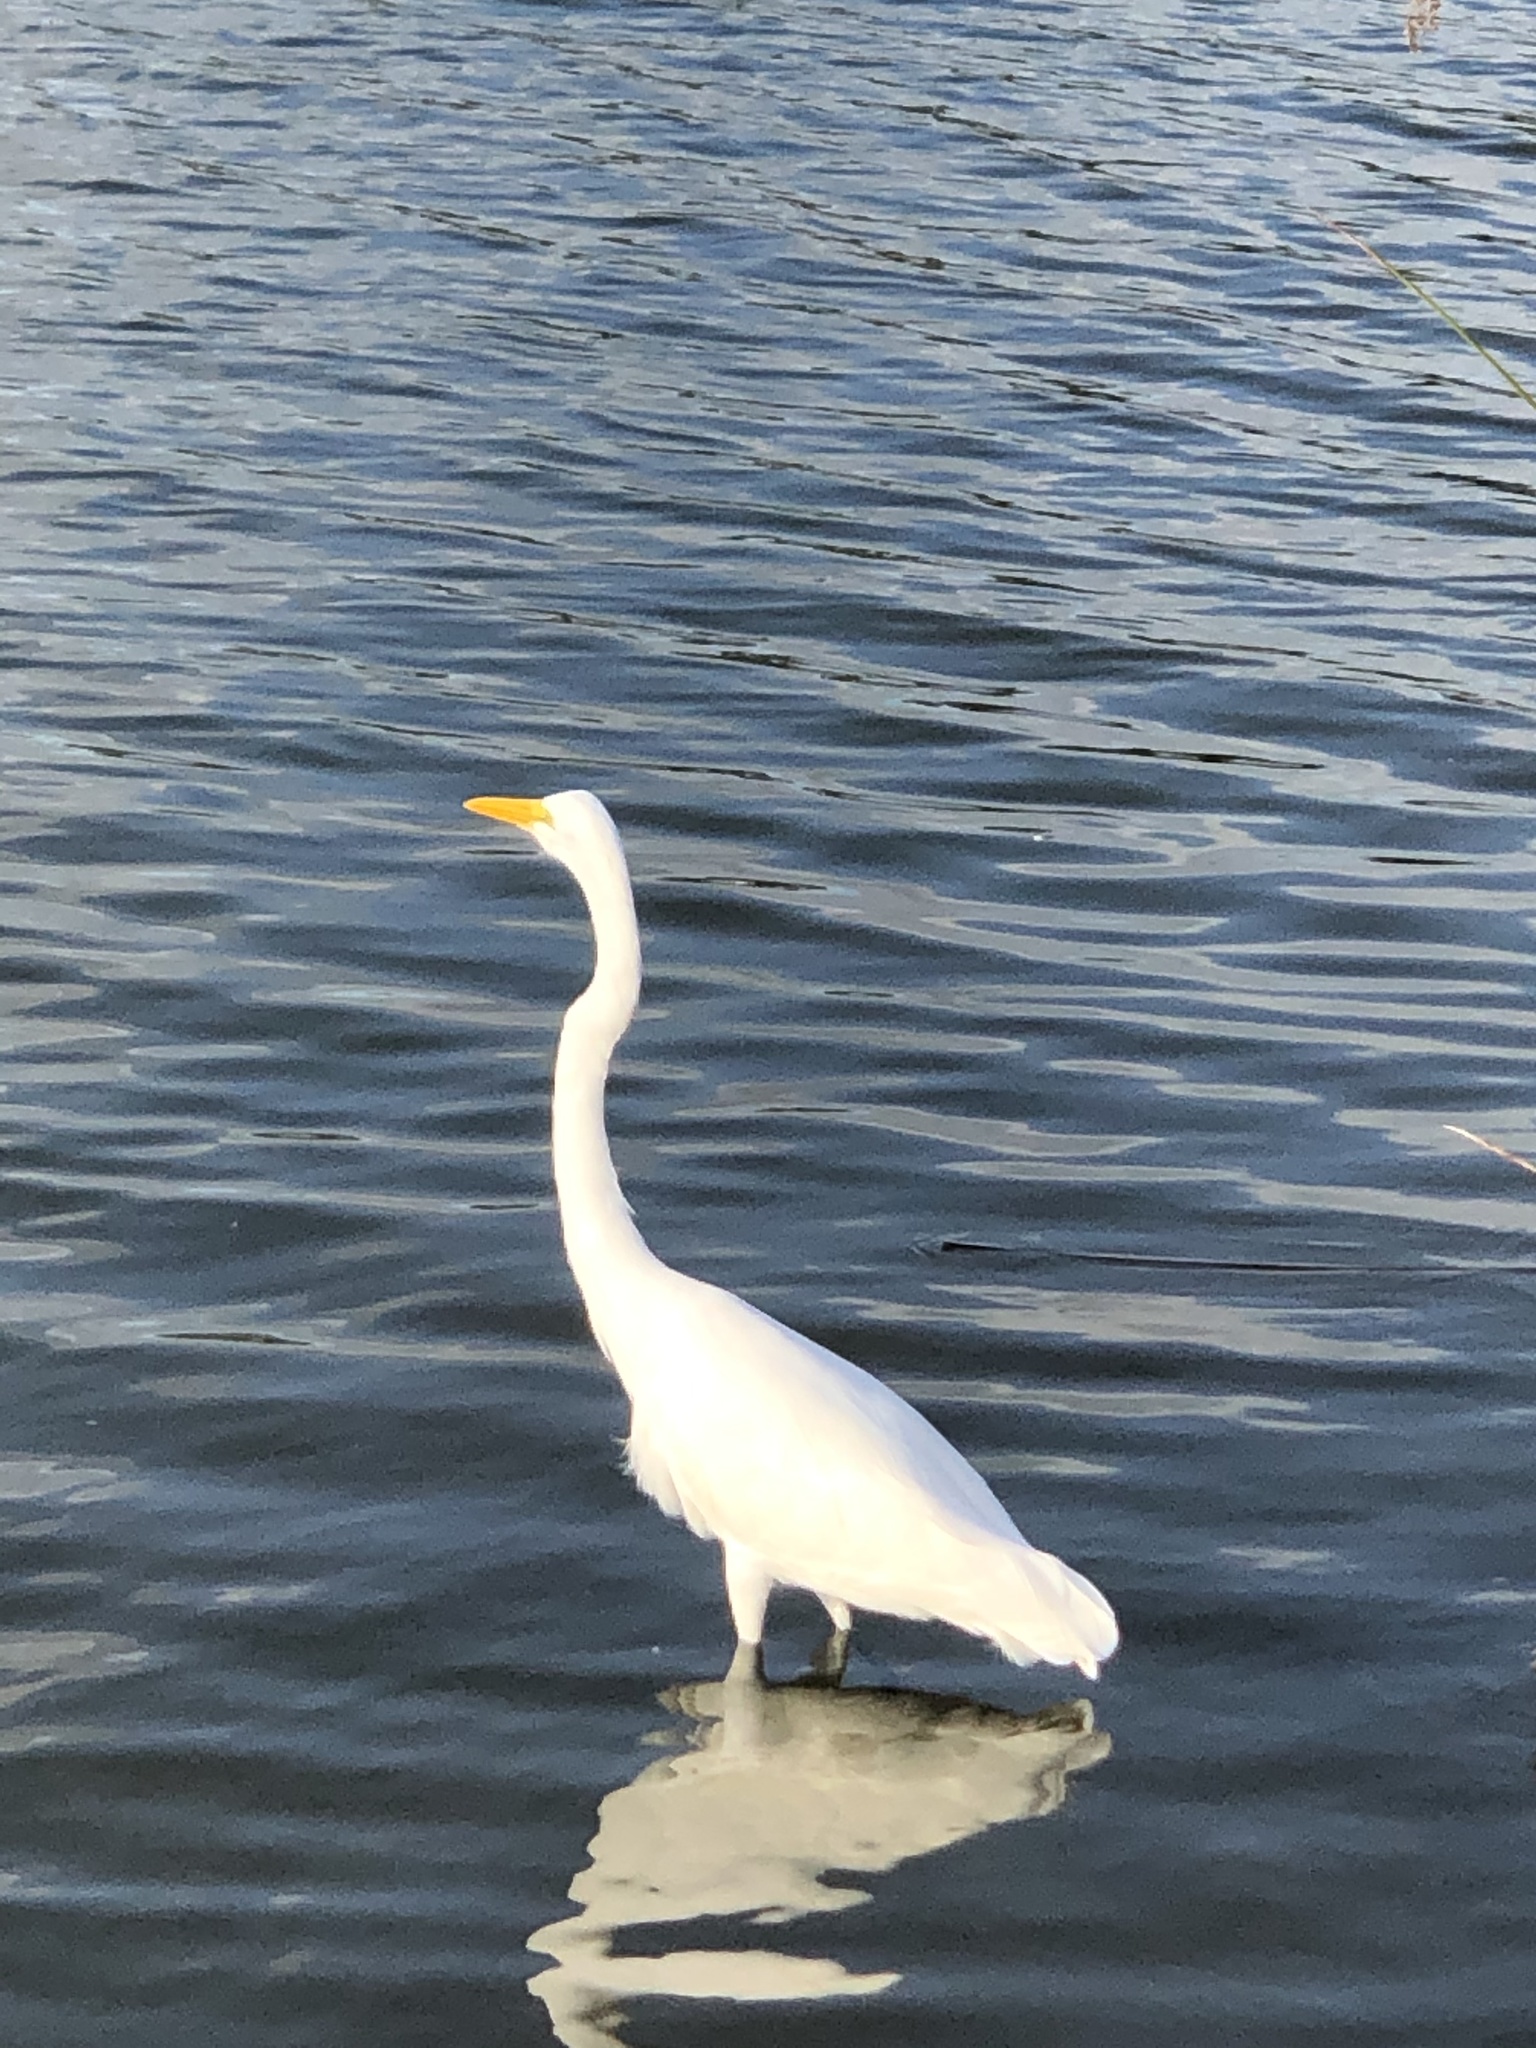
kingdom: Animalia
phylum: Chordata
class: Aves
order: Pelecaniformes
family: Ardeidae
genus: Ardea
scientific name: Ardea alba
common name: Great egret
